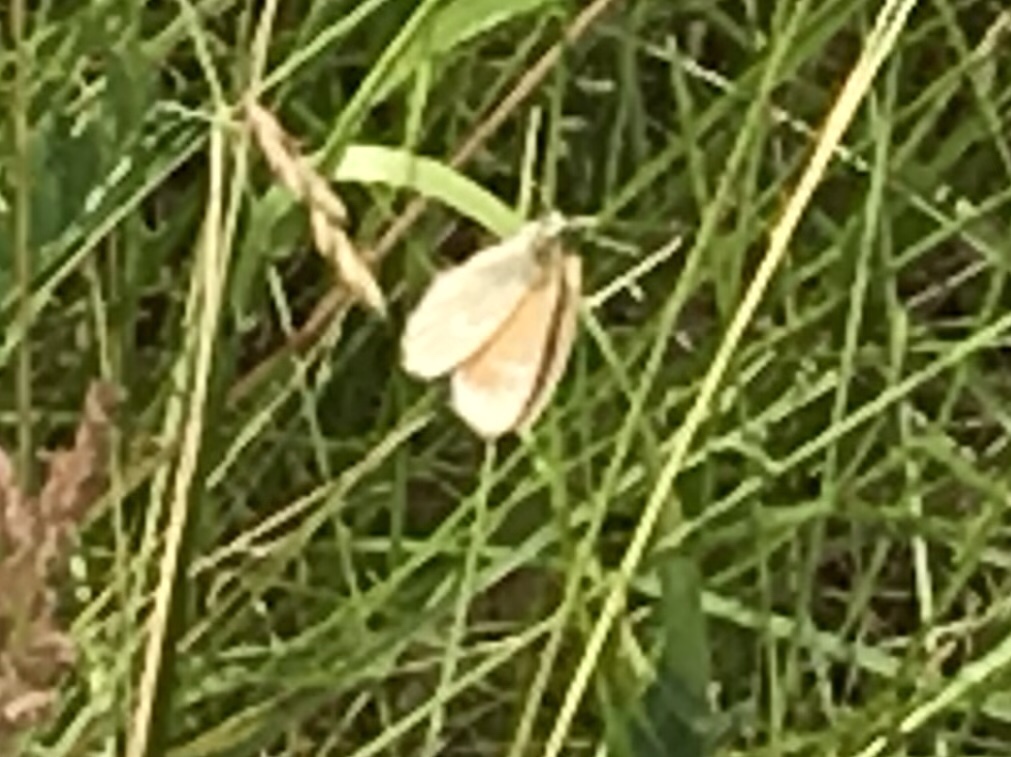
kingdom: Animalia
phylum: Arthropoda
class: Insecta
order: Lepidoptera
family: Nymphalidae
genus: Coenonympha
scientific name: Coenonympha california
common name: Common ringlet
